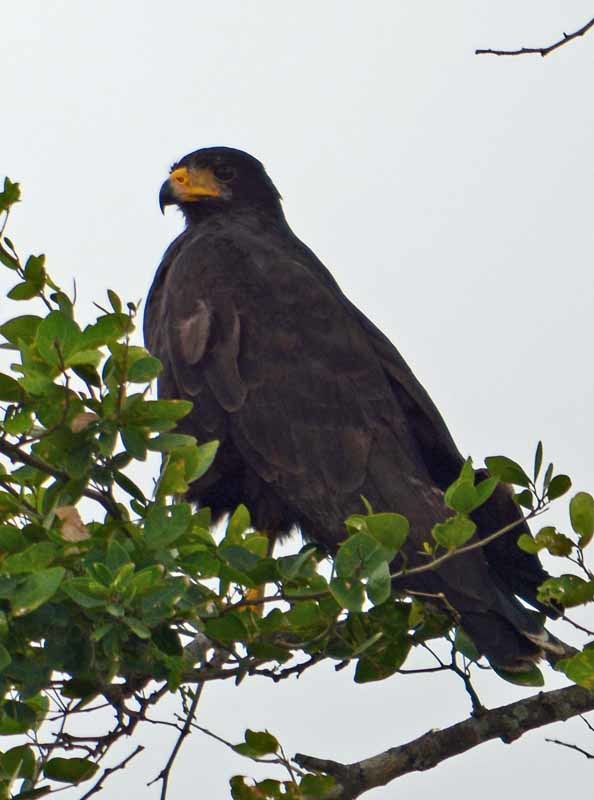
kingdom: Animalia
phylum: Chordata
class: Aves
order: Accipitriformes
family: Accipitridae
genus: Buteogallus
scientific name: Buteogallus urubitinga
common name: Great black hawk
